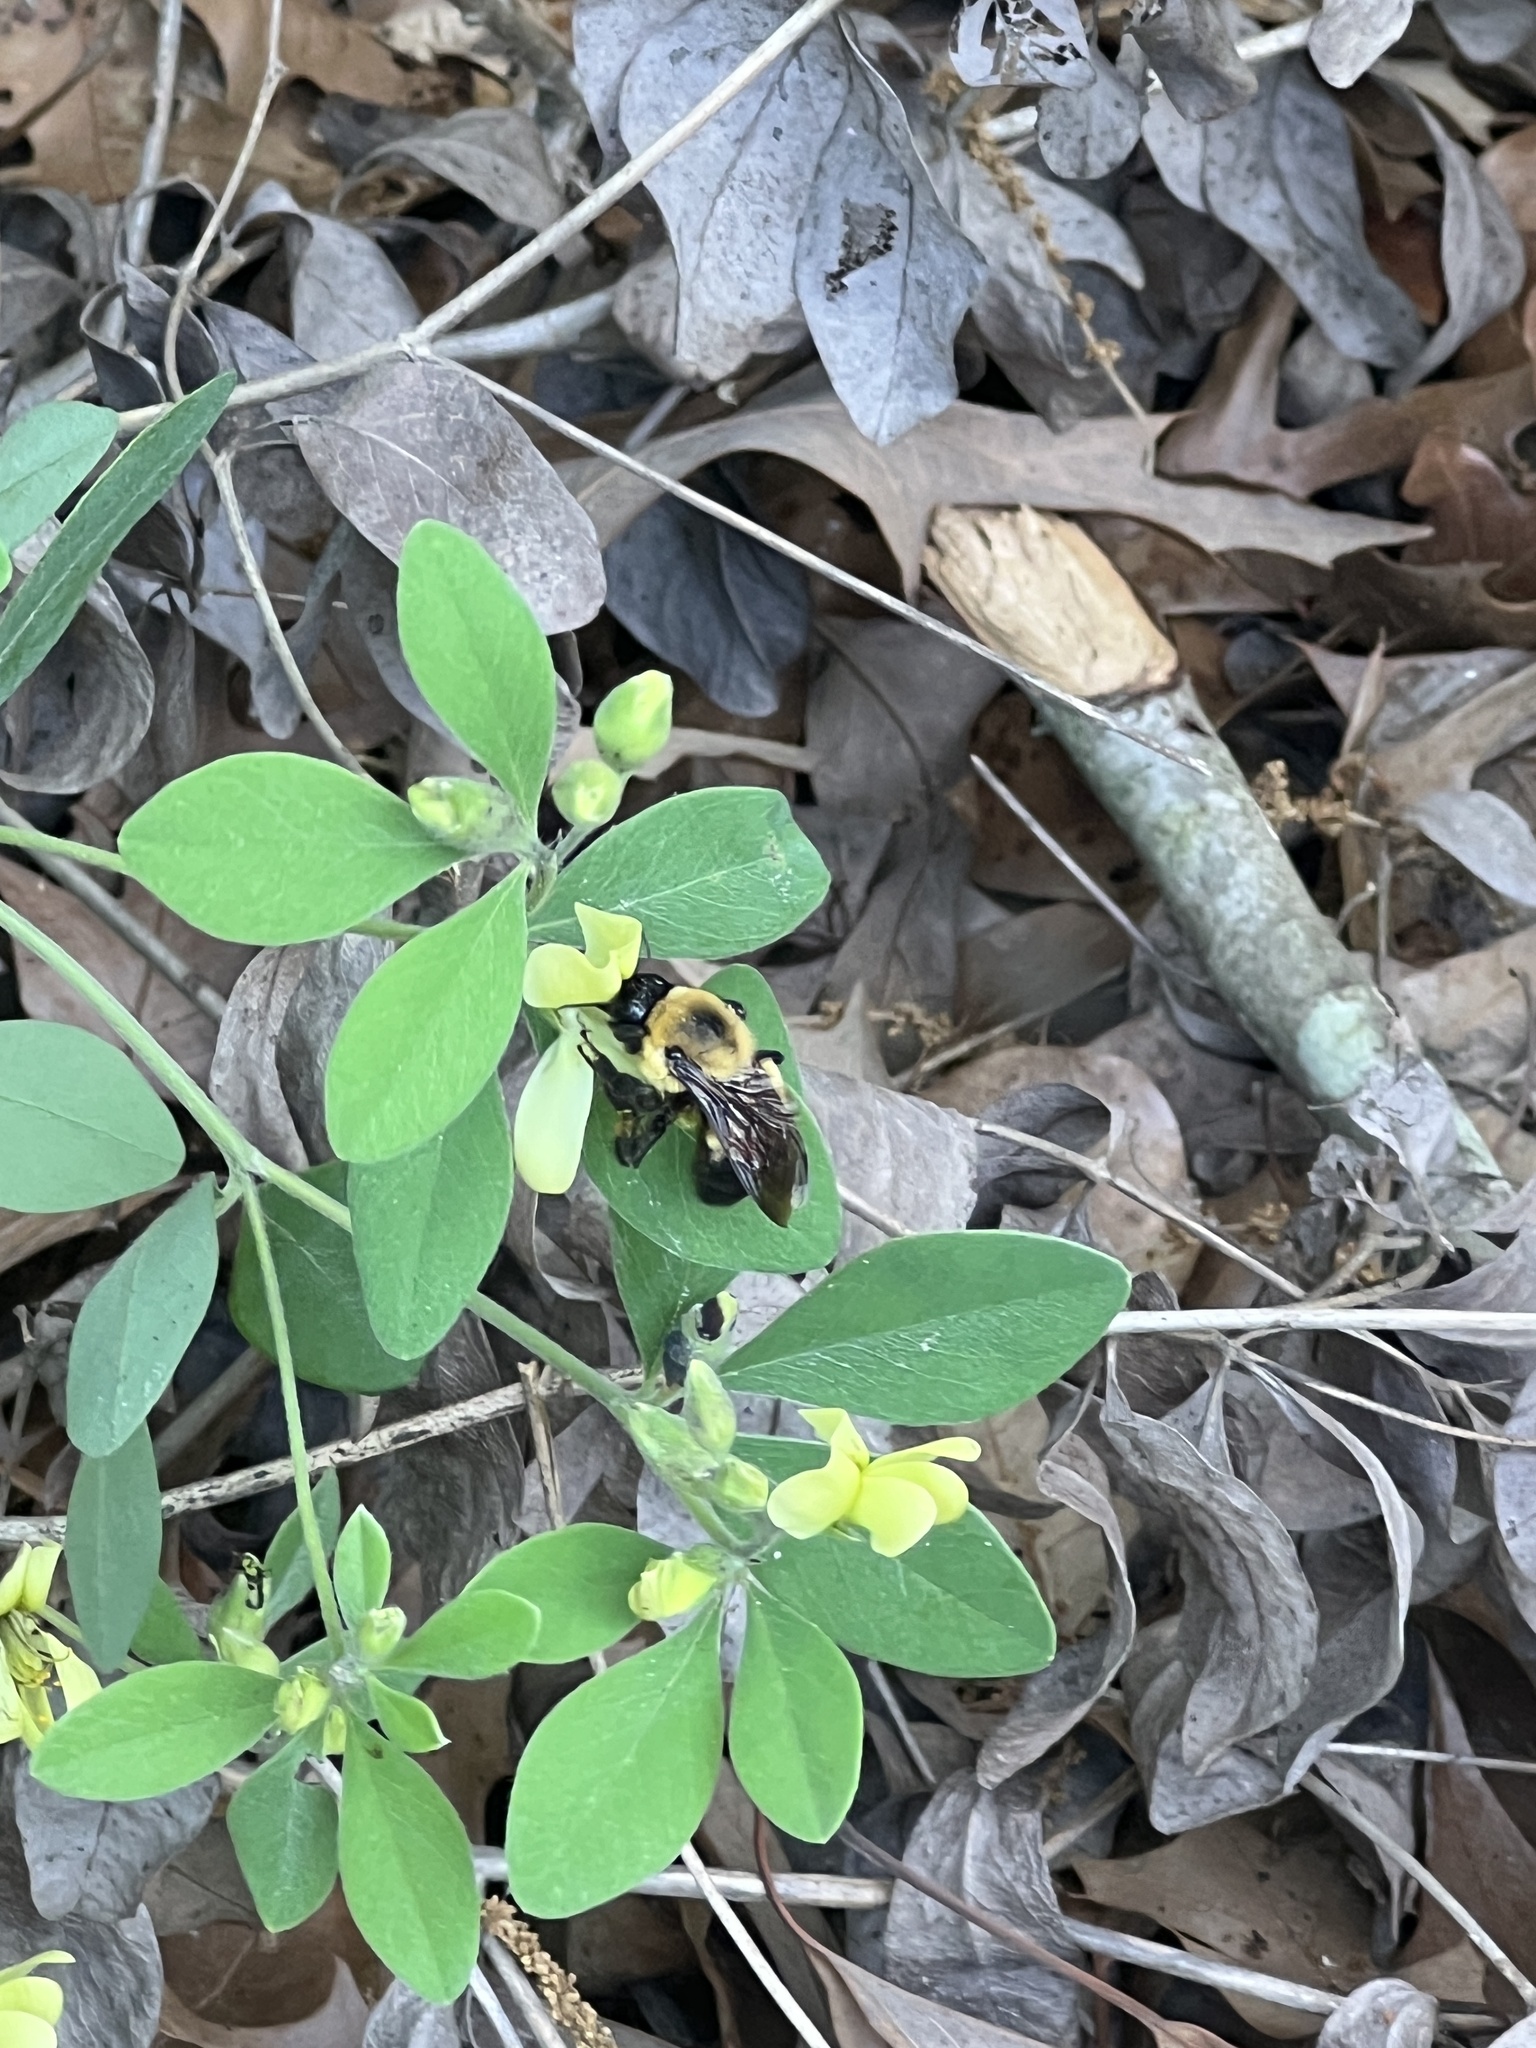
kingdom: Animalia
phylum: Arthropoda
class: Insecta
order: Hymenoptera
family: Apidae
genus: Bombus
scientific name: Bombus griseocollis
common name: Brown-belted bumble bee
